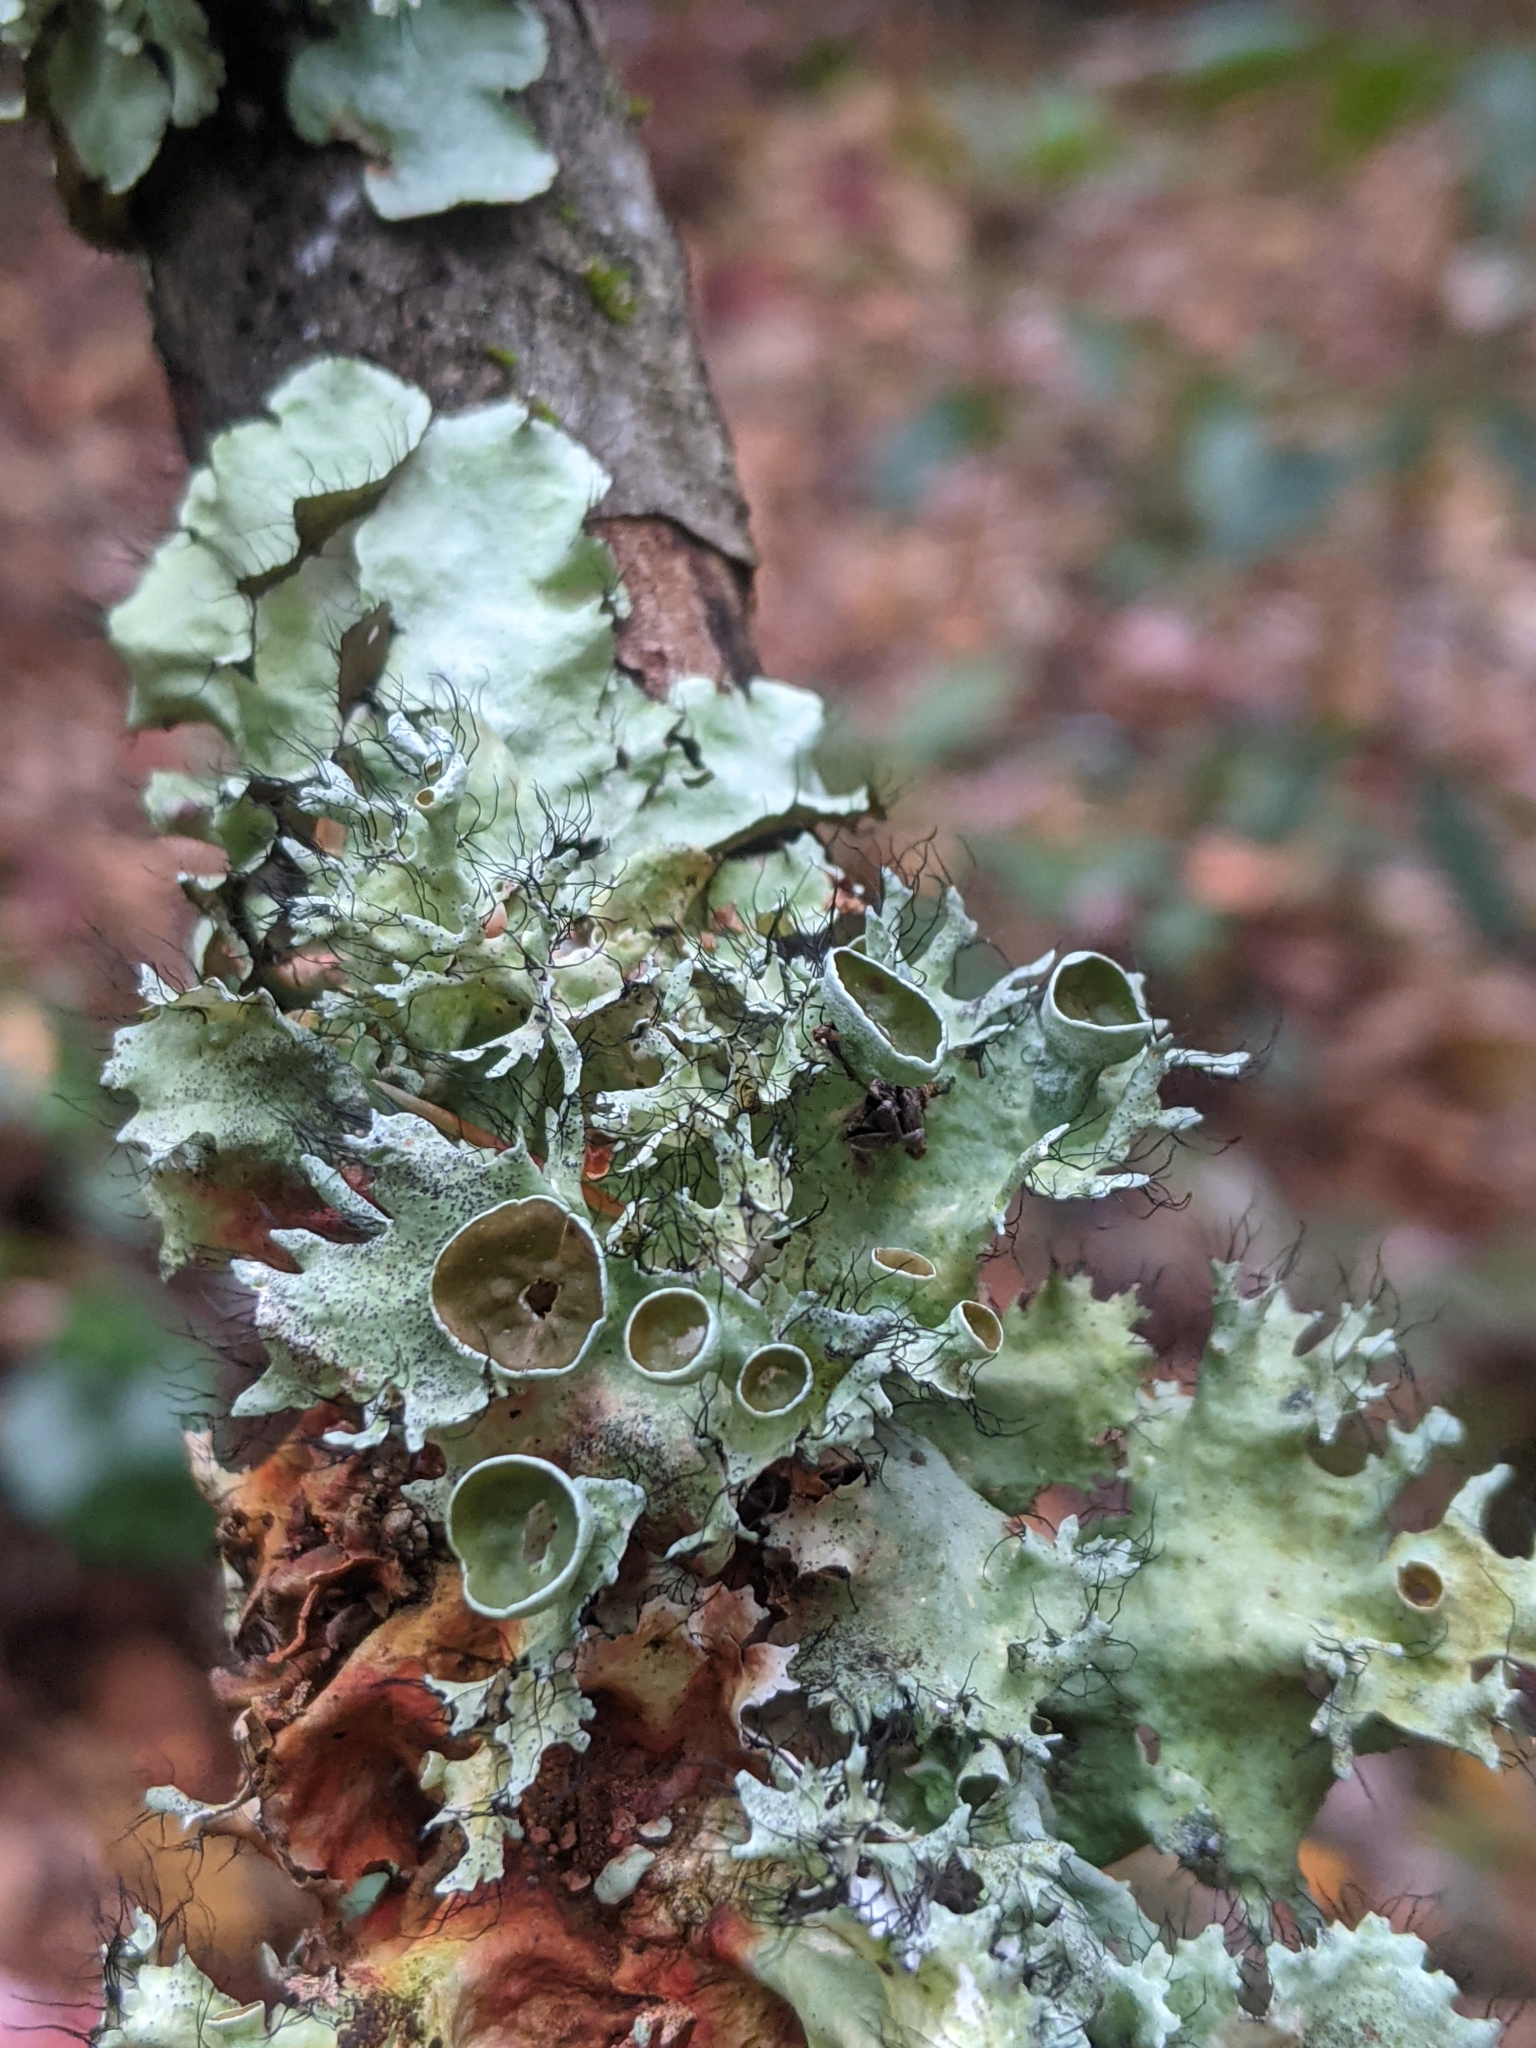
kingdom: Fungi
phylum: Ascomycota
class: Lecanoromycetes
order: Lecanorales
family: Parmeliaceae
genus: Parmotrema
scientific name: Parmotrema perforatum
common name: Perforated ruffle lichen
